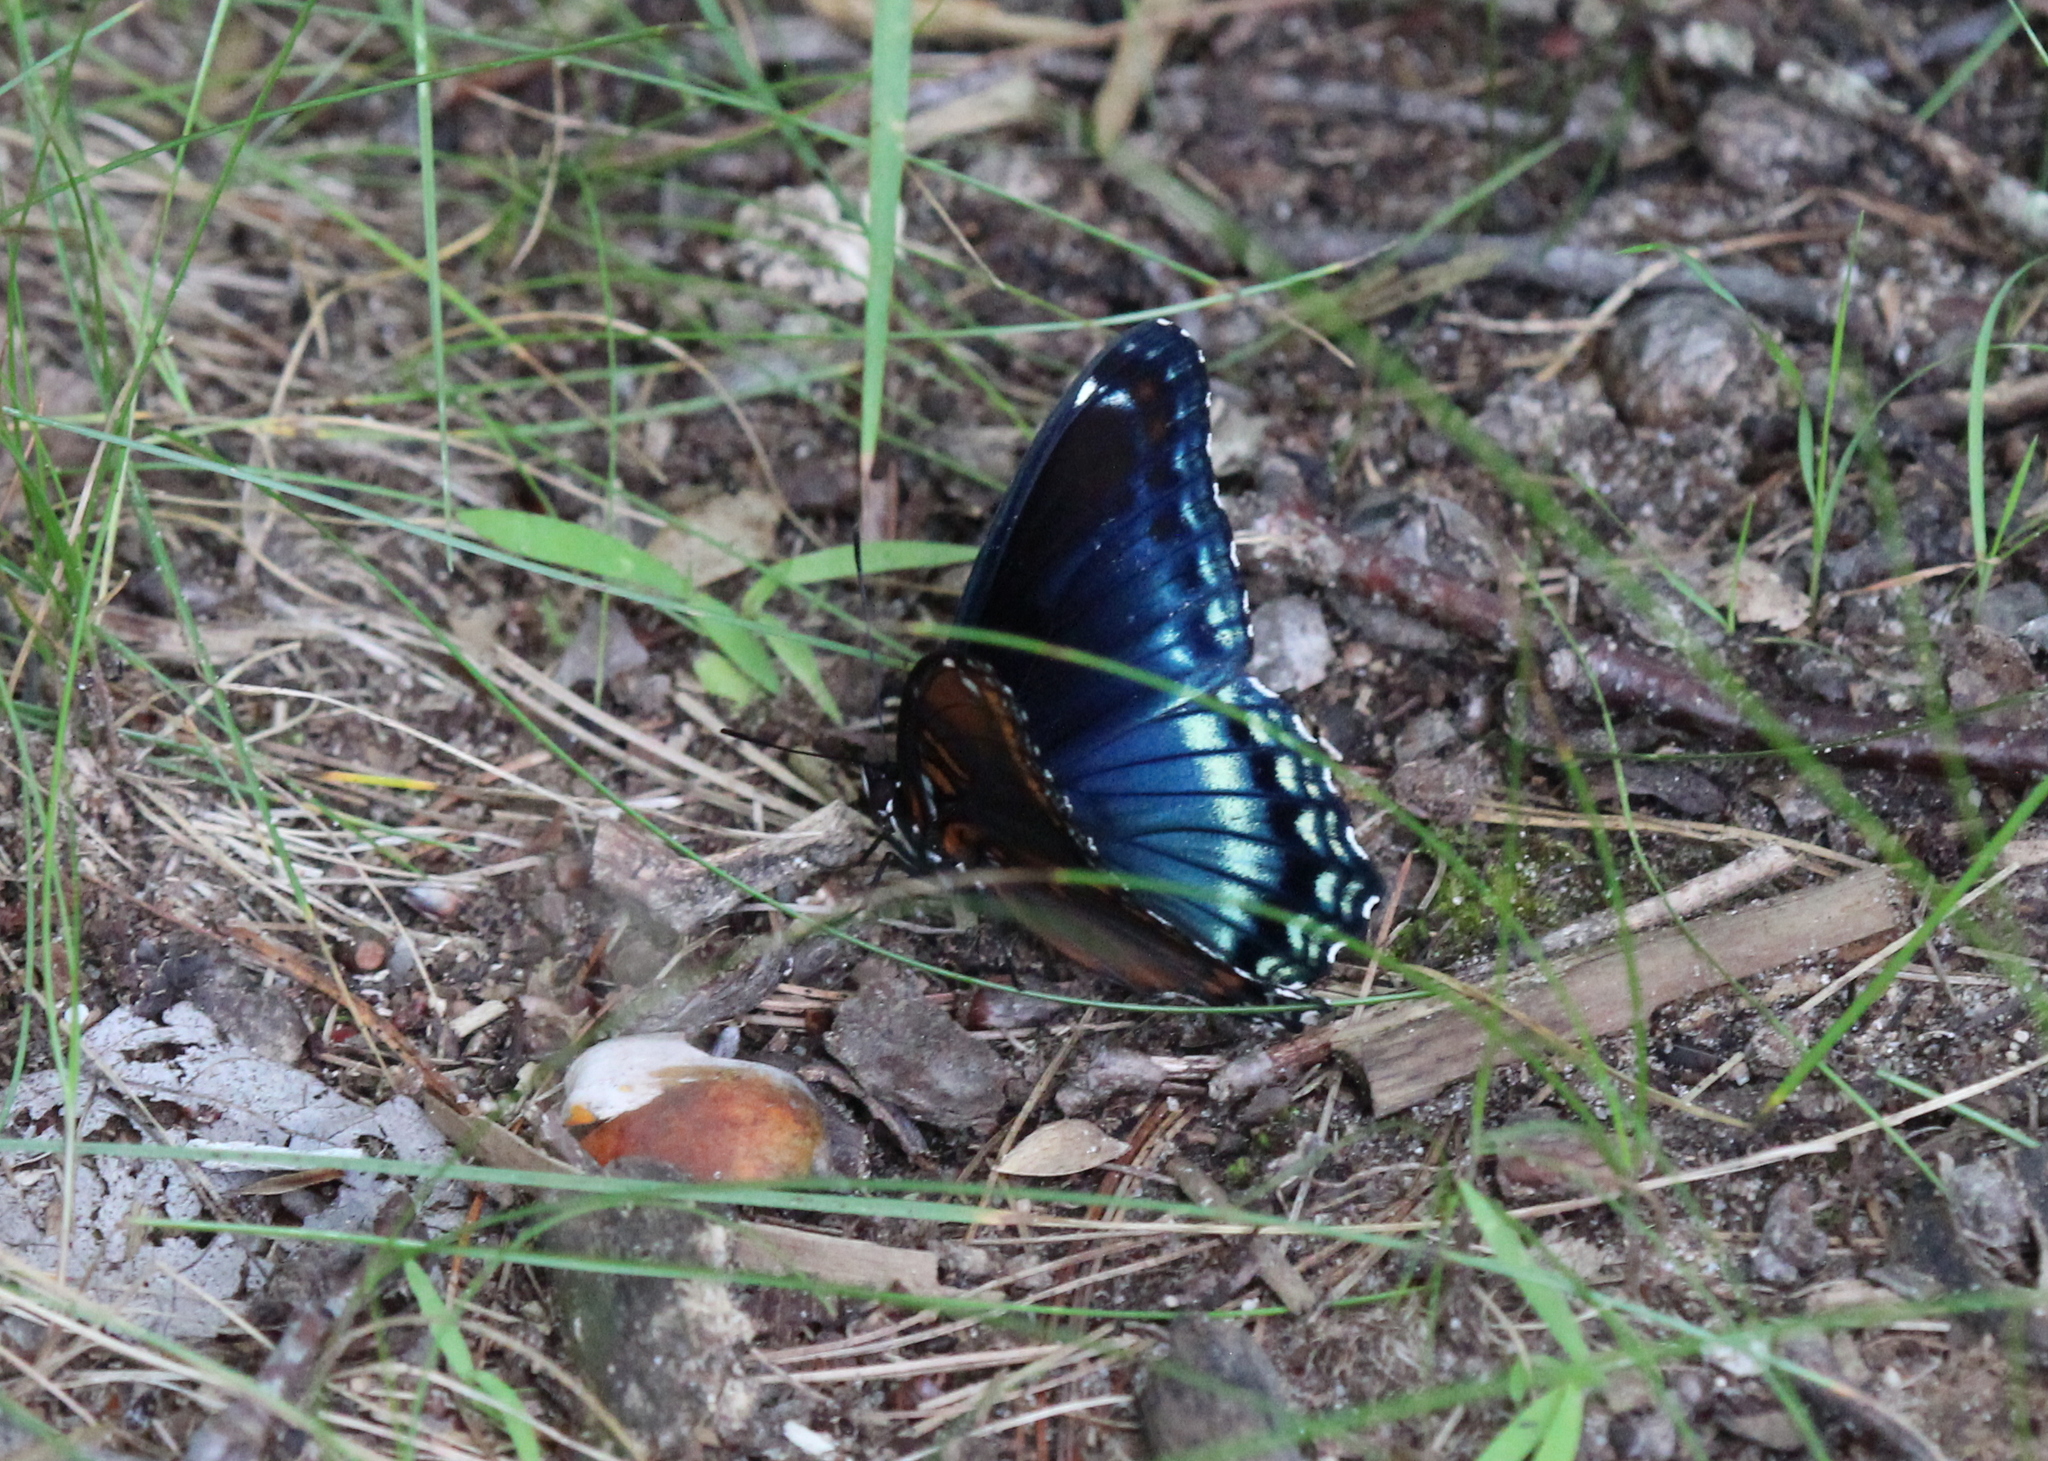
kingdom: Animalia
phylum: Arthropoda
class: Insecta
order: Lepidoptera
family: Nymphalidae
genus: Limenitis
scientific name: Limenitis arthemis
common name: Red-spotted admiral
